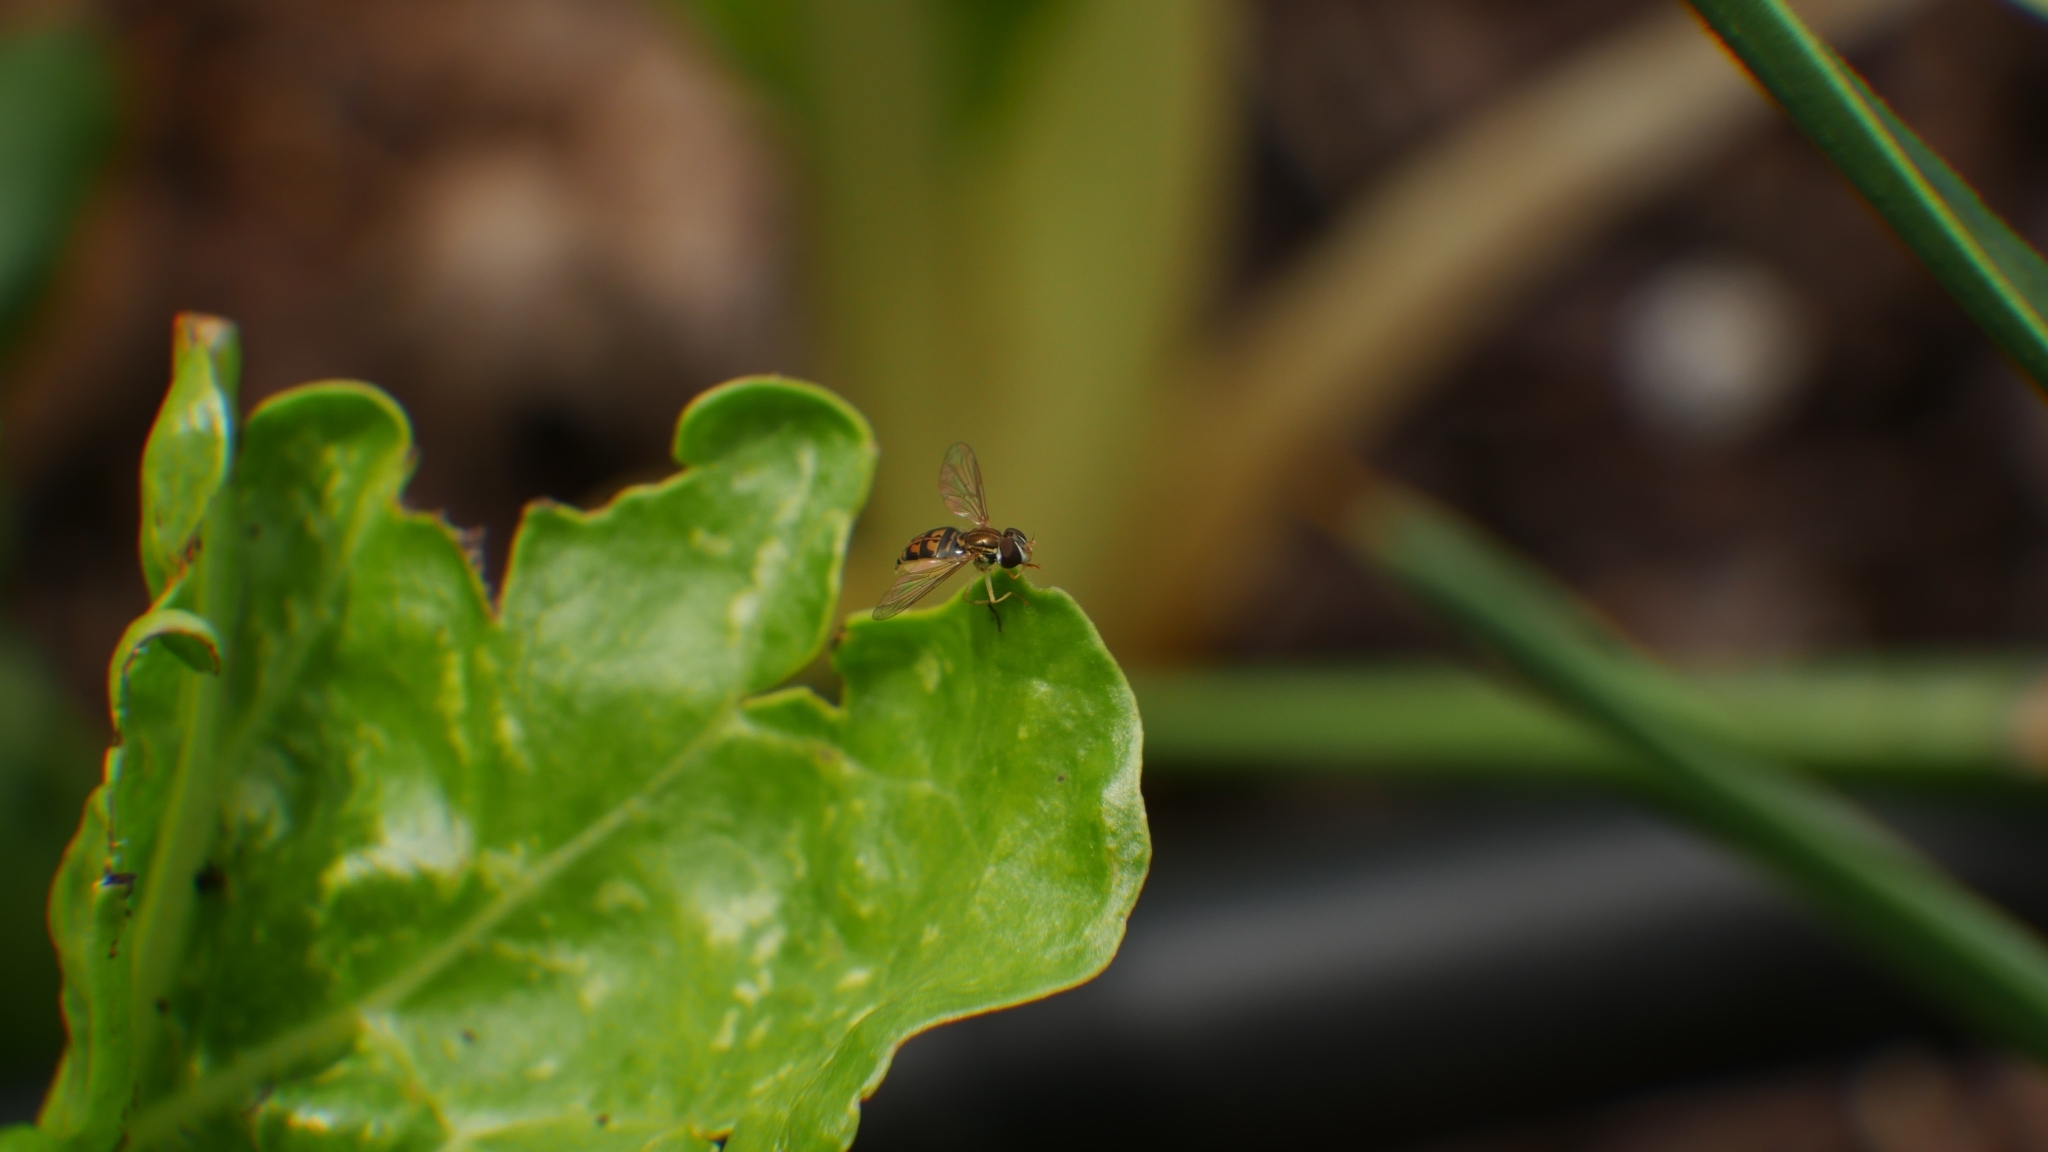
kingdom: Animalia
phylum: Arthropoda
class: Insecta
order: Diptera
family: Syrphidae
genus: Toxomerus
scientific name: Toxomerus marginatus
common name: Syrphid fly
